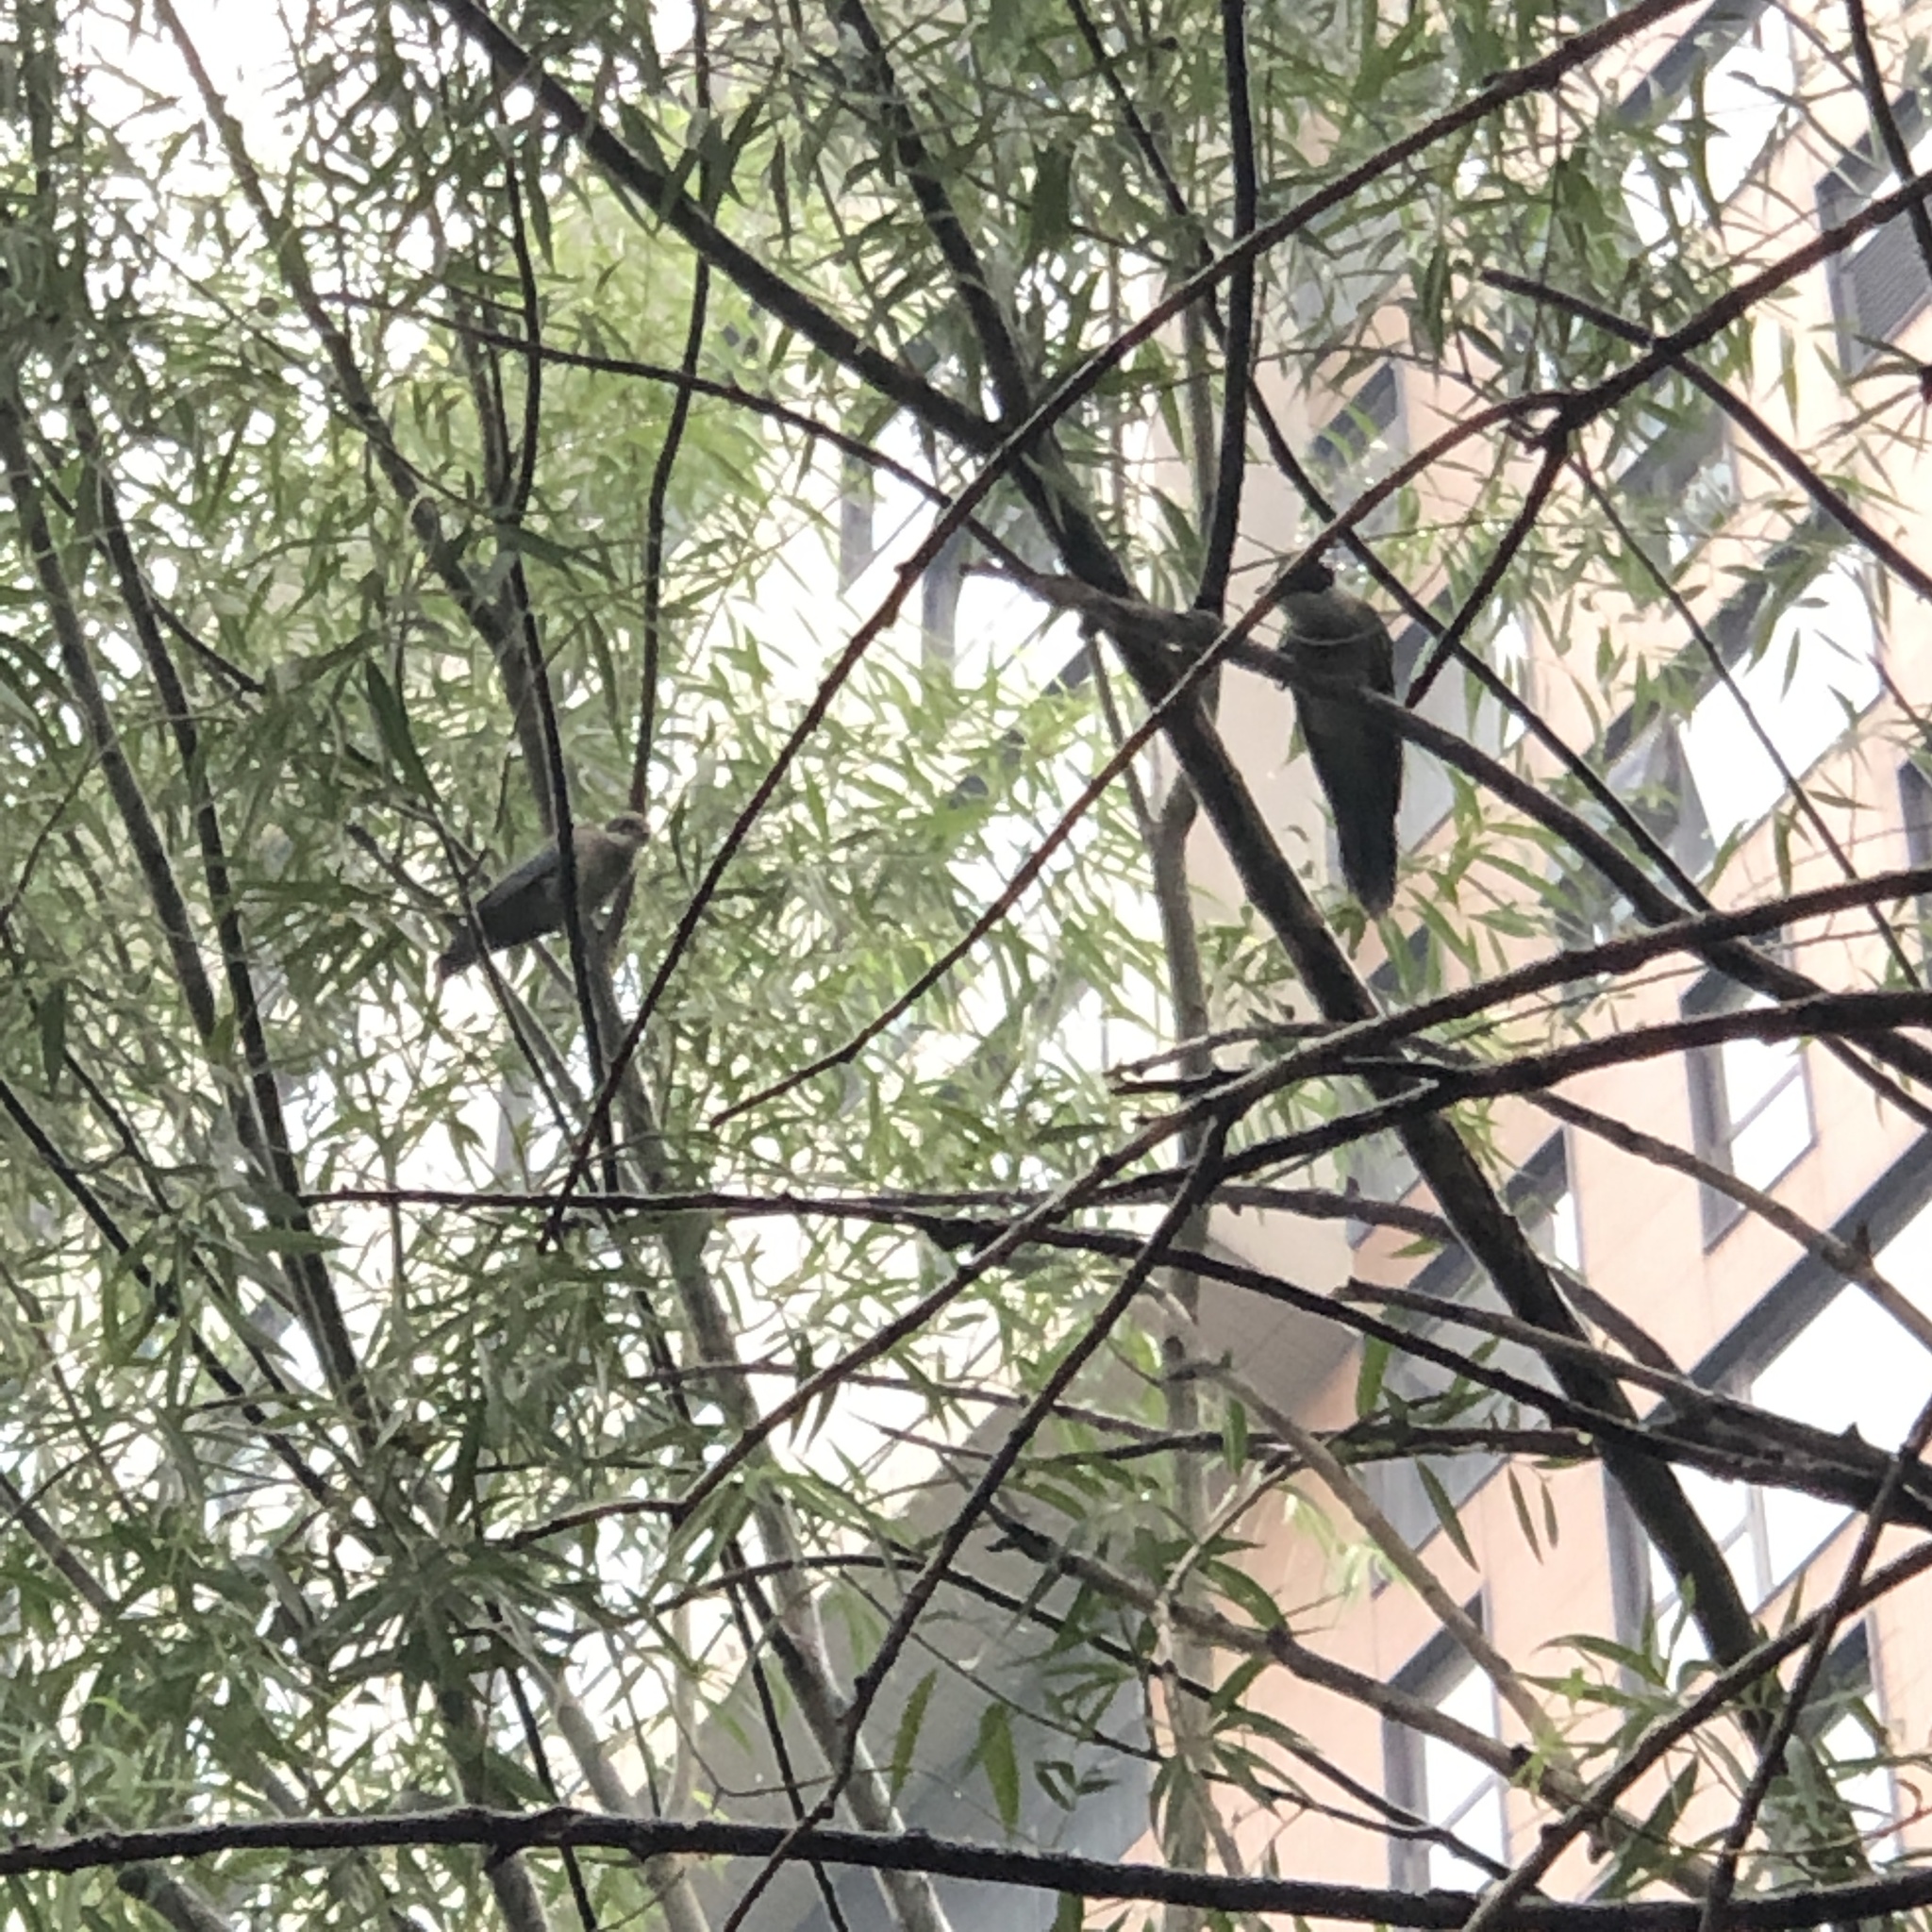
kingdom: Animalia
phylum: Chordata
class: Aves
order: Passeriformes
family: Corvidae
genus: Cyanopica
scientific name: Cyanopica cyanus
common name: Azure-winged magpie
